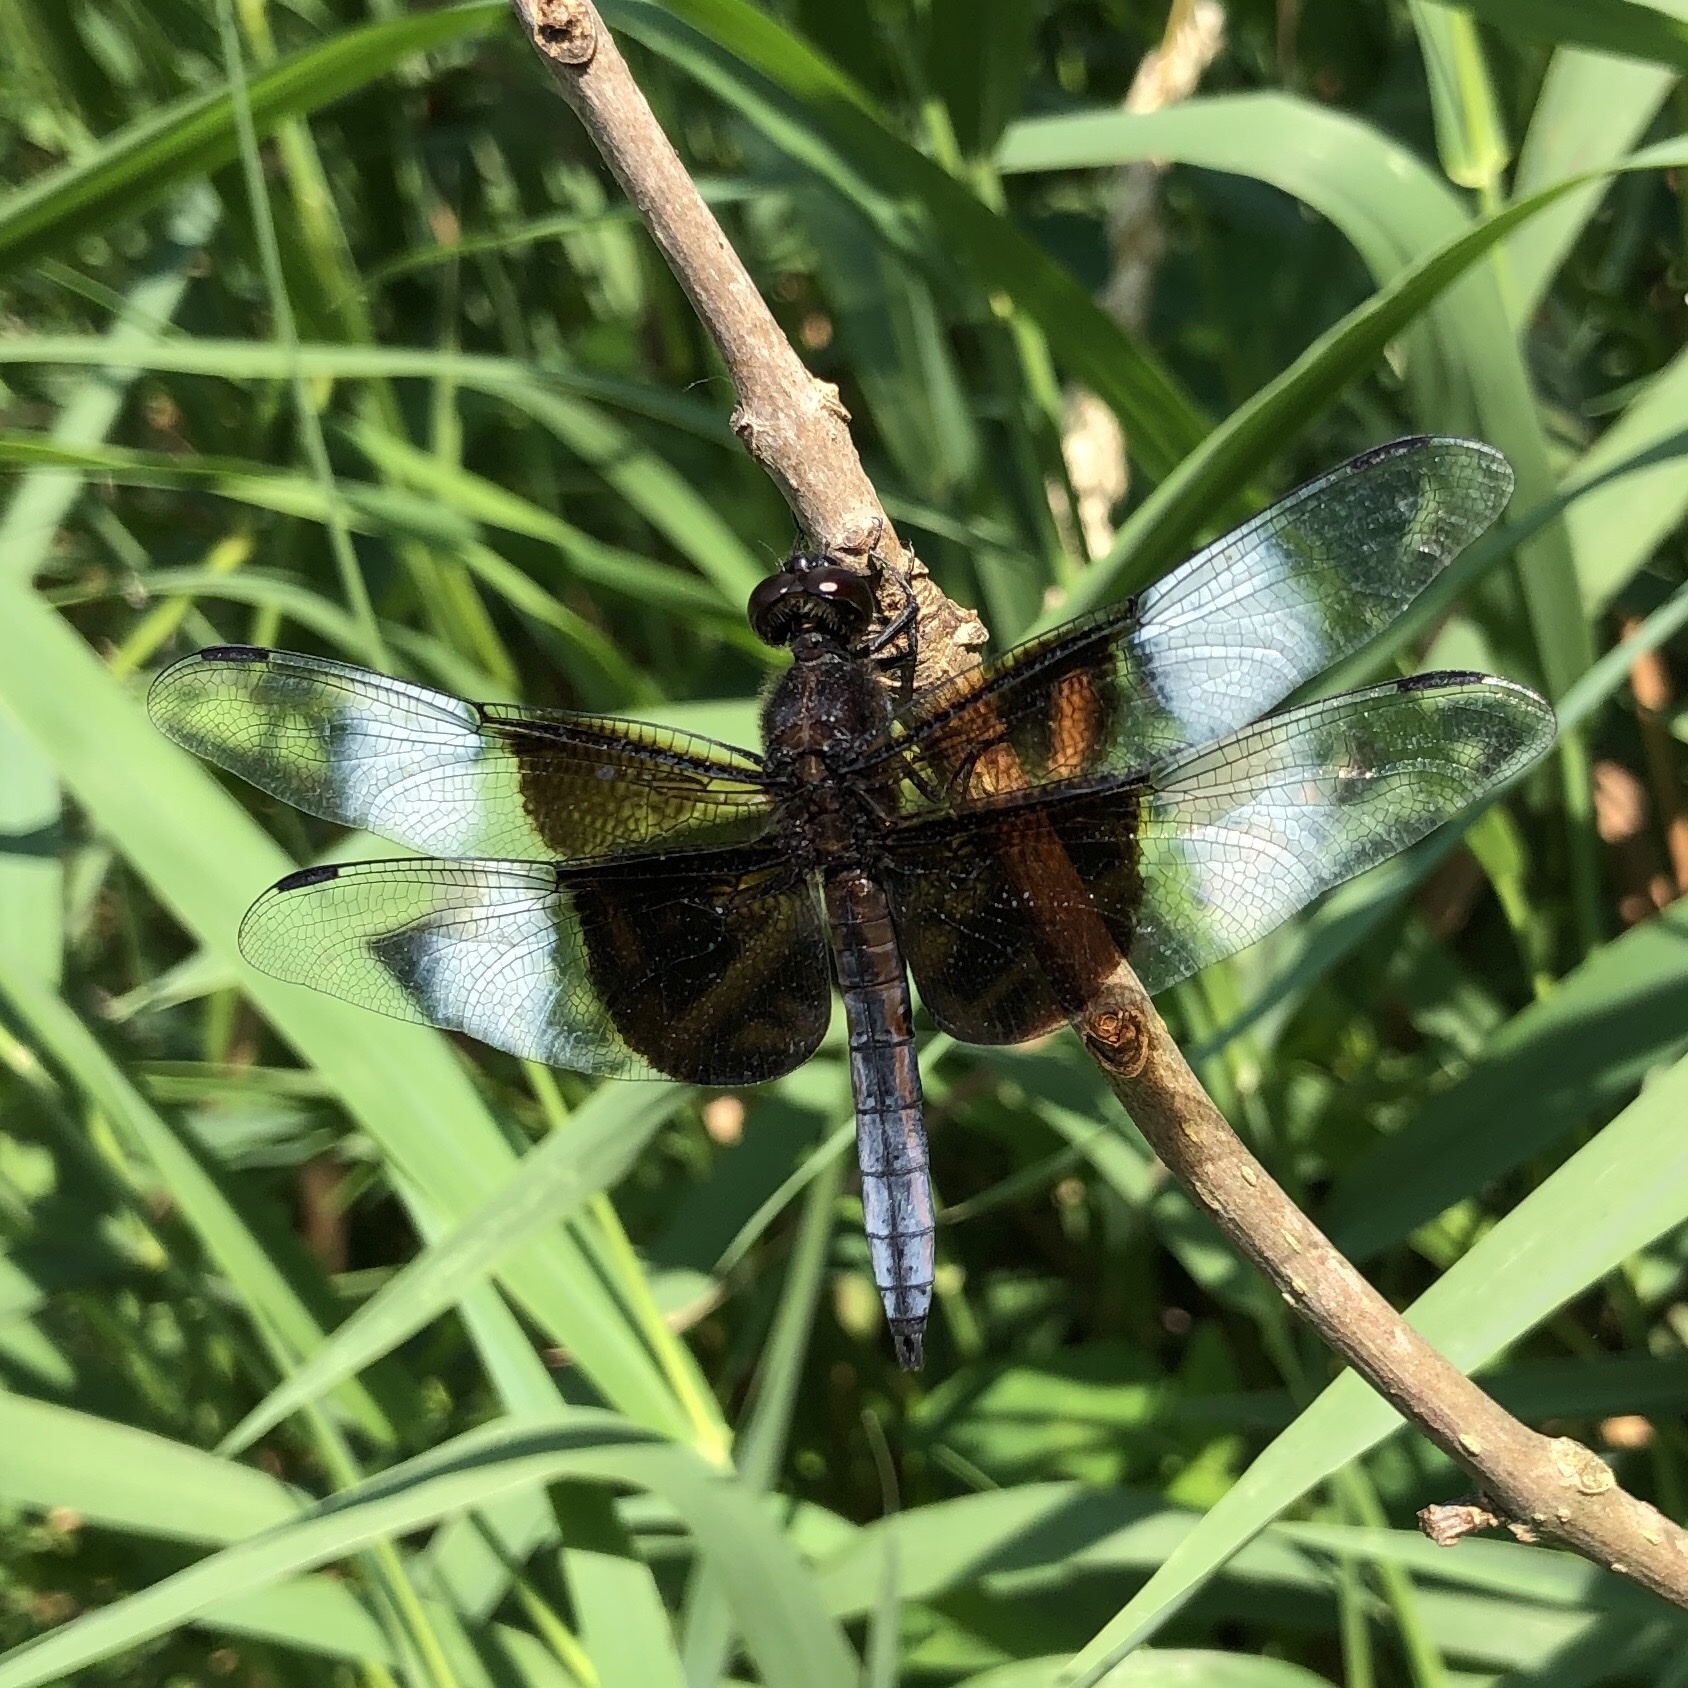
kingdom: Animalia
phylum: Arthropoda
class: Insecta
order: Odonata
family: Libellulidae
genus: Libellula
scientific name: Libellula luctuosa
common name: Widow skimmer
